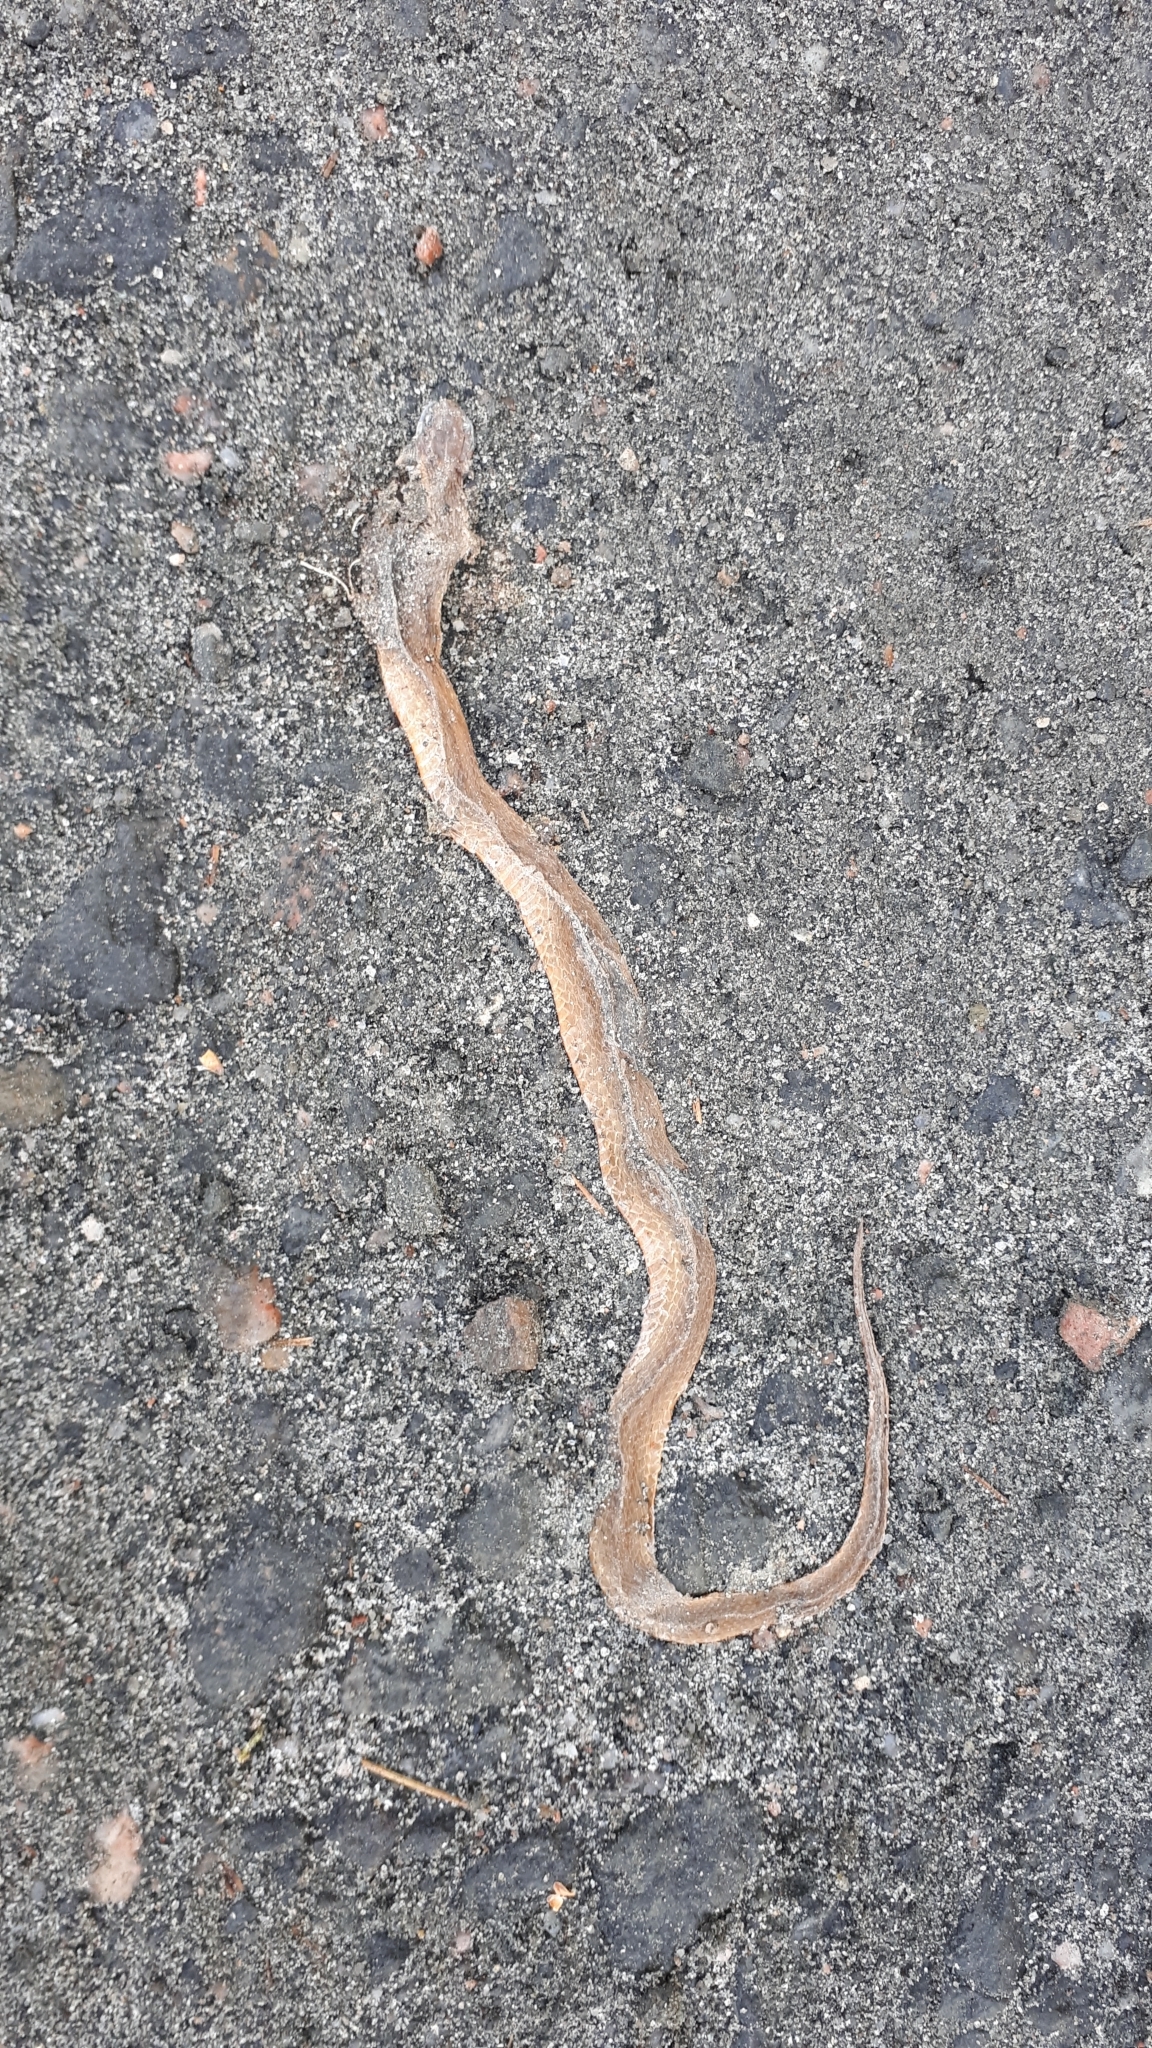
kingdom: Animalia
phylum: Chordata
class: Squamata
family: Colubridae
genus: Storeria
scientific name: Storeria occipitomaculata
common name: Redbelly snake
